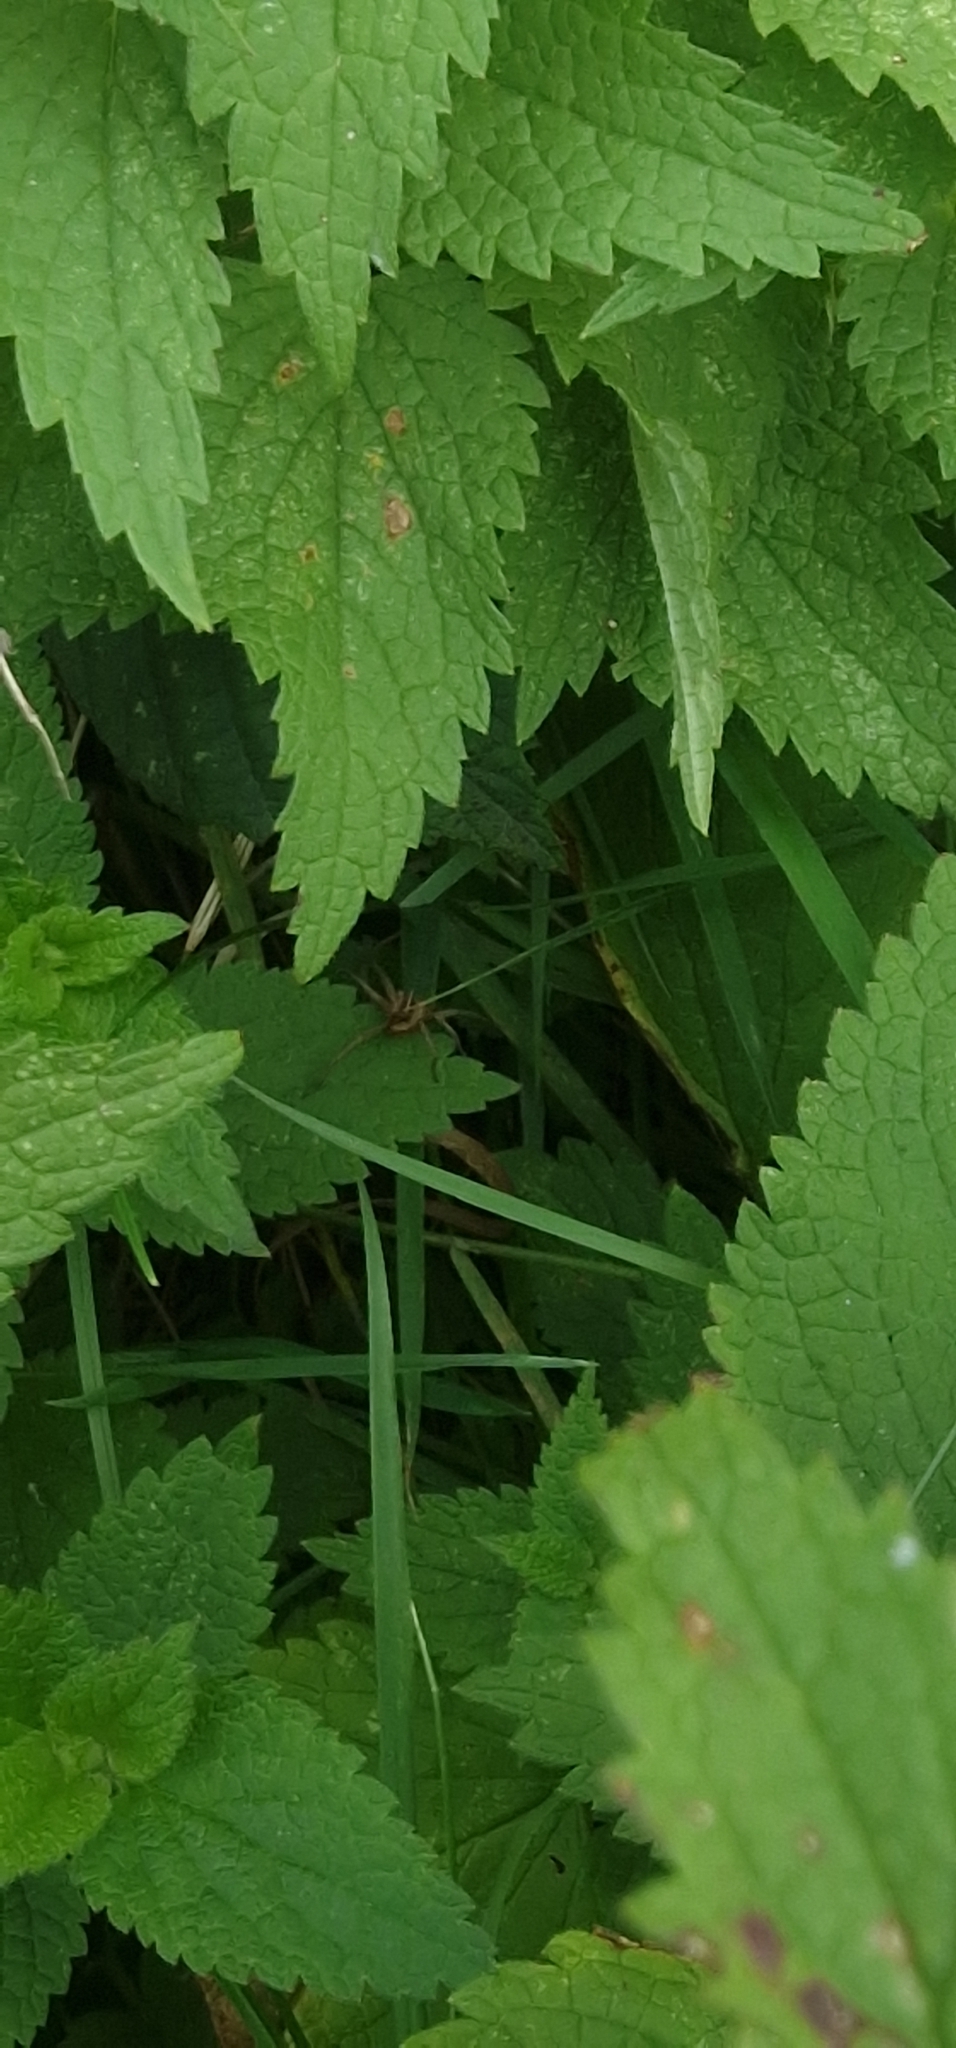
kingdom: Animalia
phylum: Arthropoda
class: Arachnida
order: Araneae
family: Pisauridae
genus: Pisaura
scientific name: Pisaura mirabilis
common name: Tent spider
